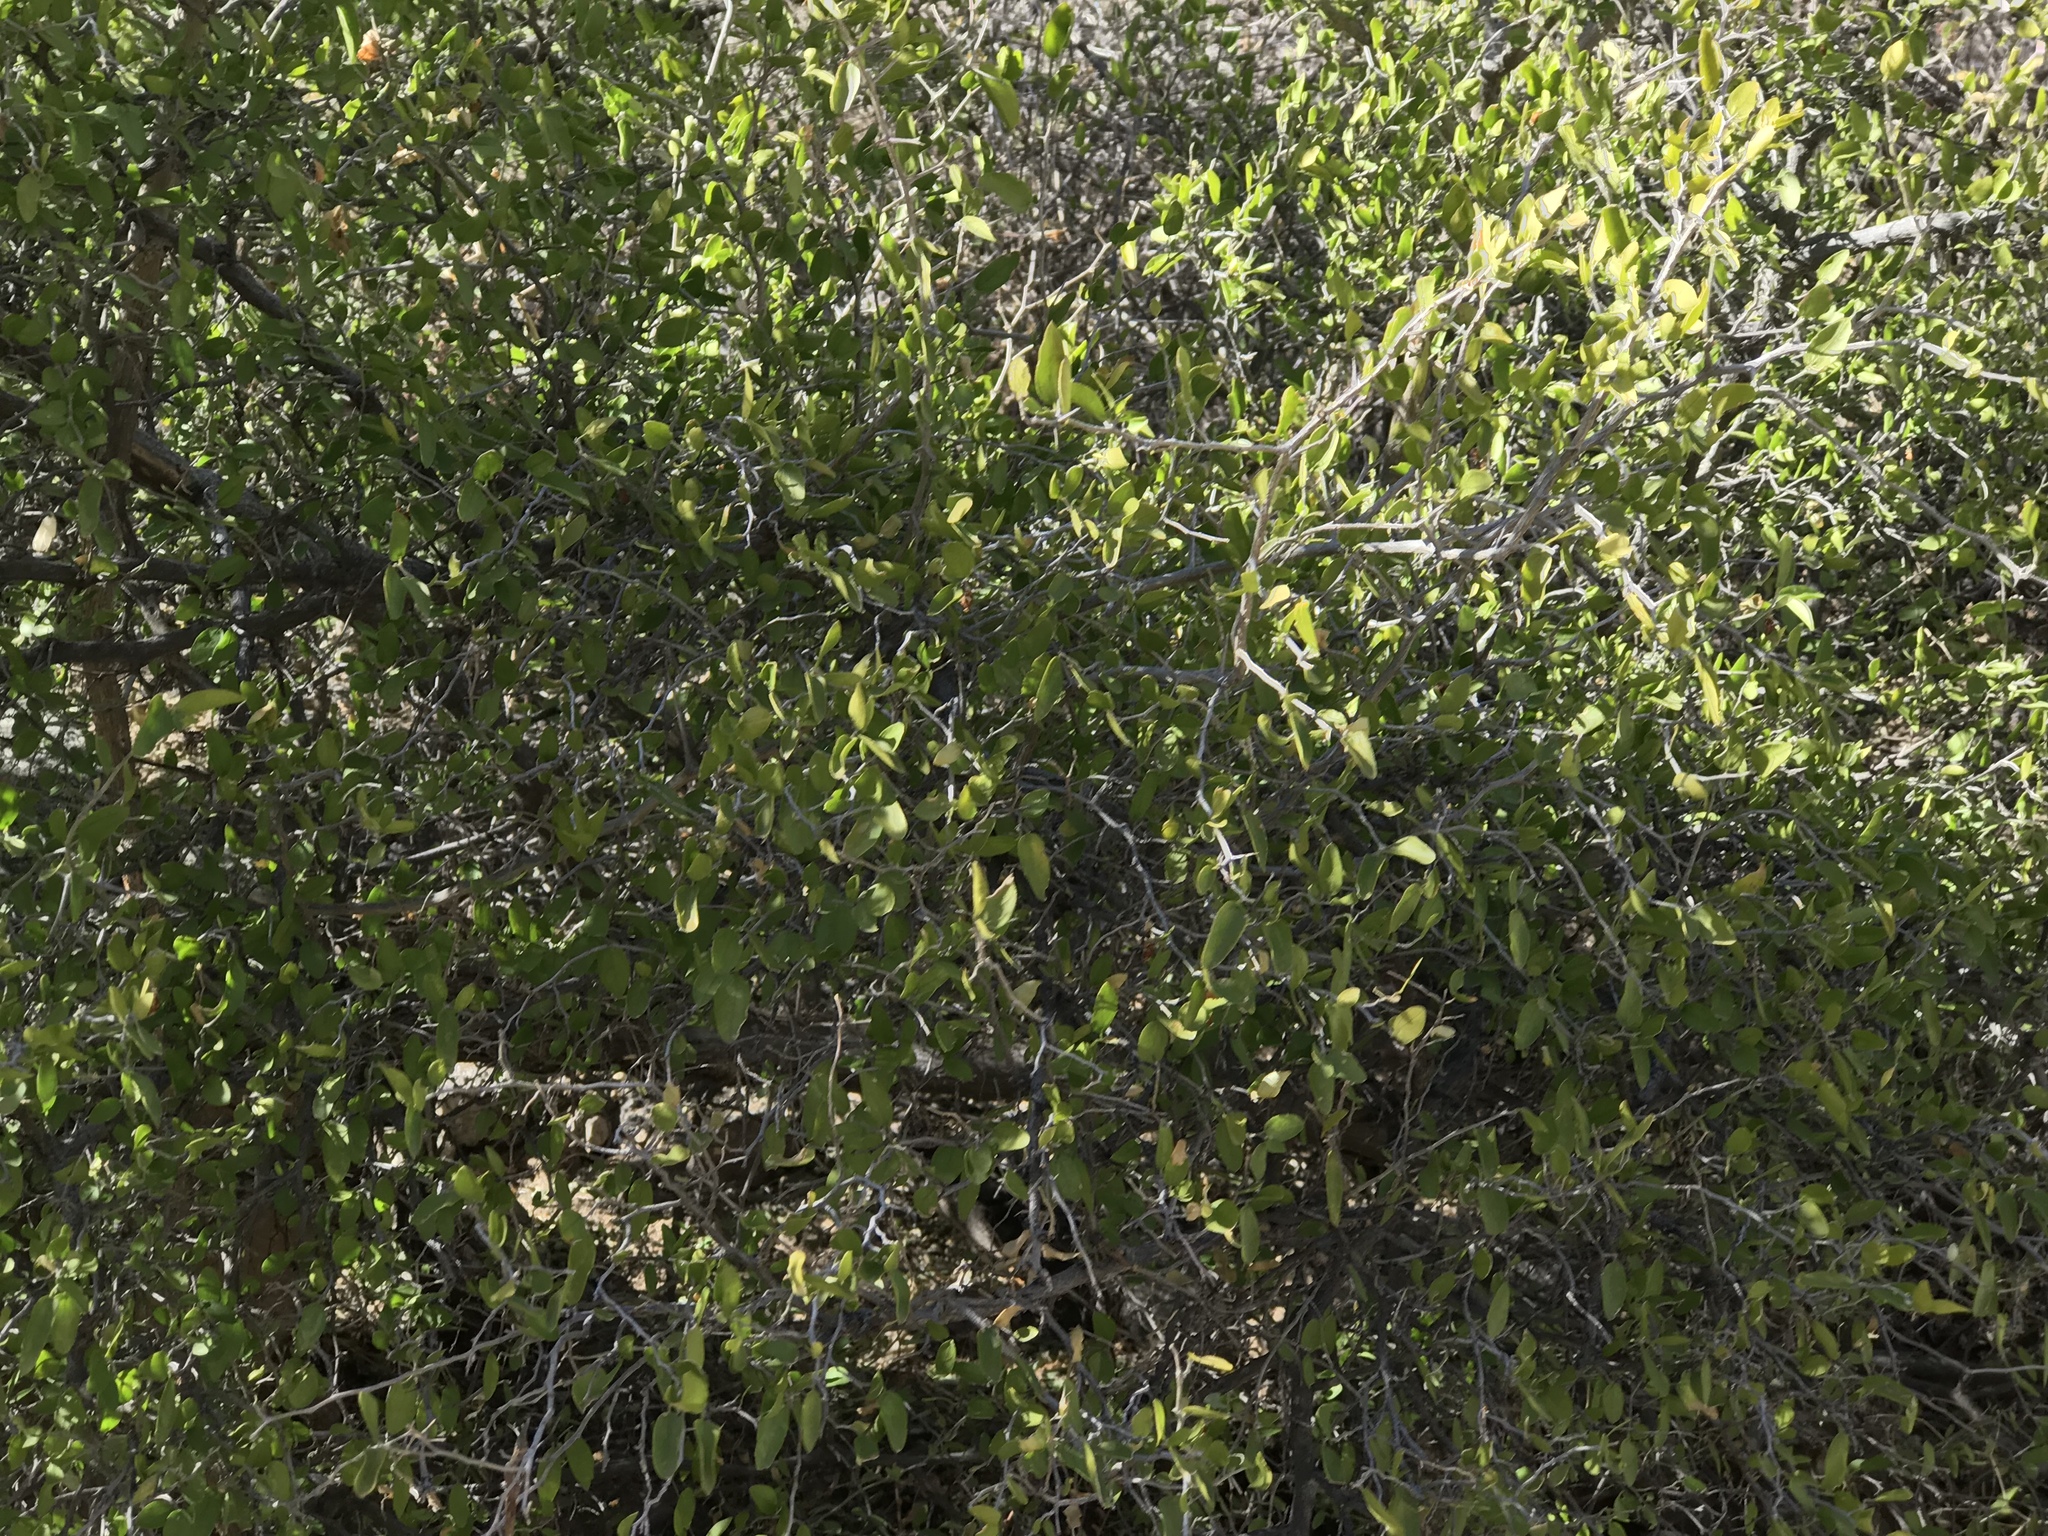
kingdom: Plantae
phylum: Tracheophyta
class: Magnoliopsida
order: Rosales
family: Cannabaceae
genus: Celtis
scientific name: Celtis pallida
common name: Desert hackberry
